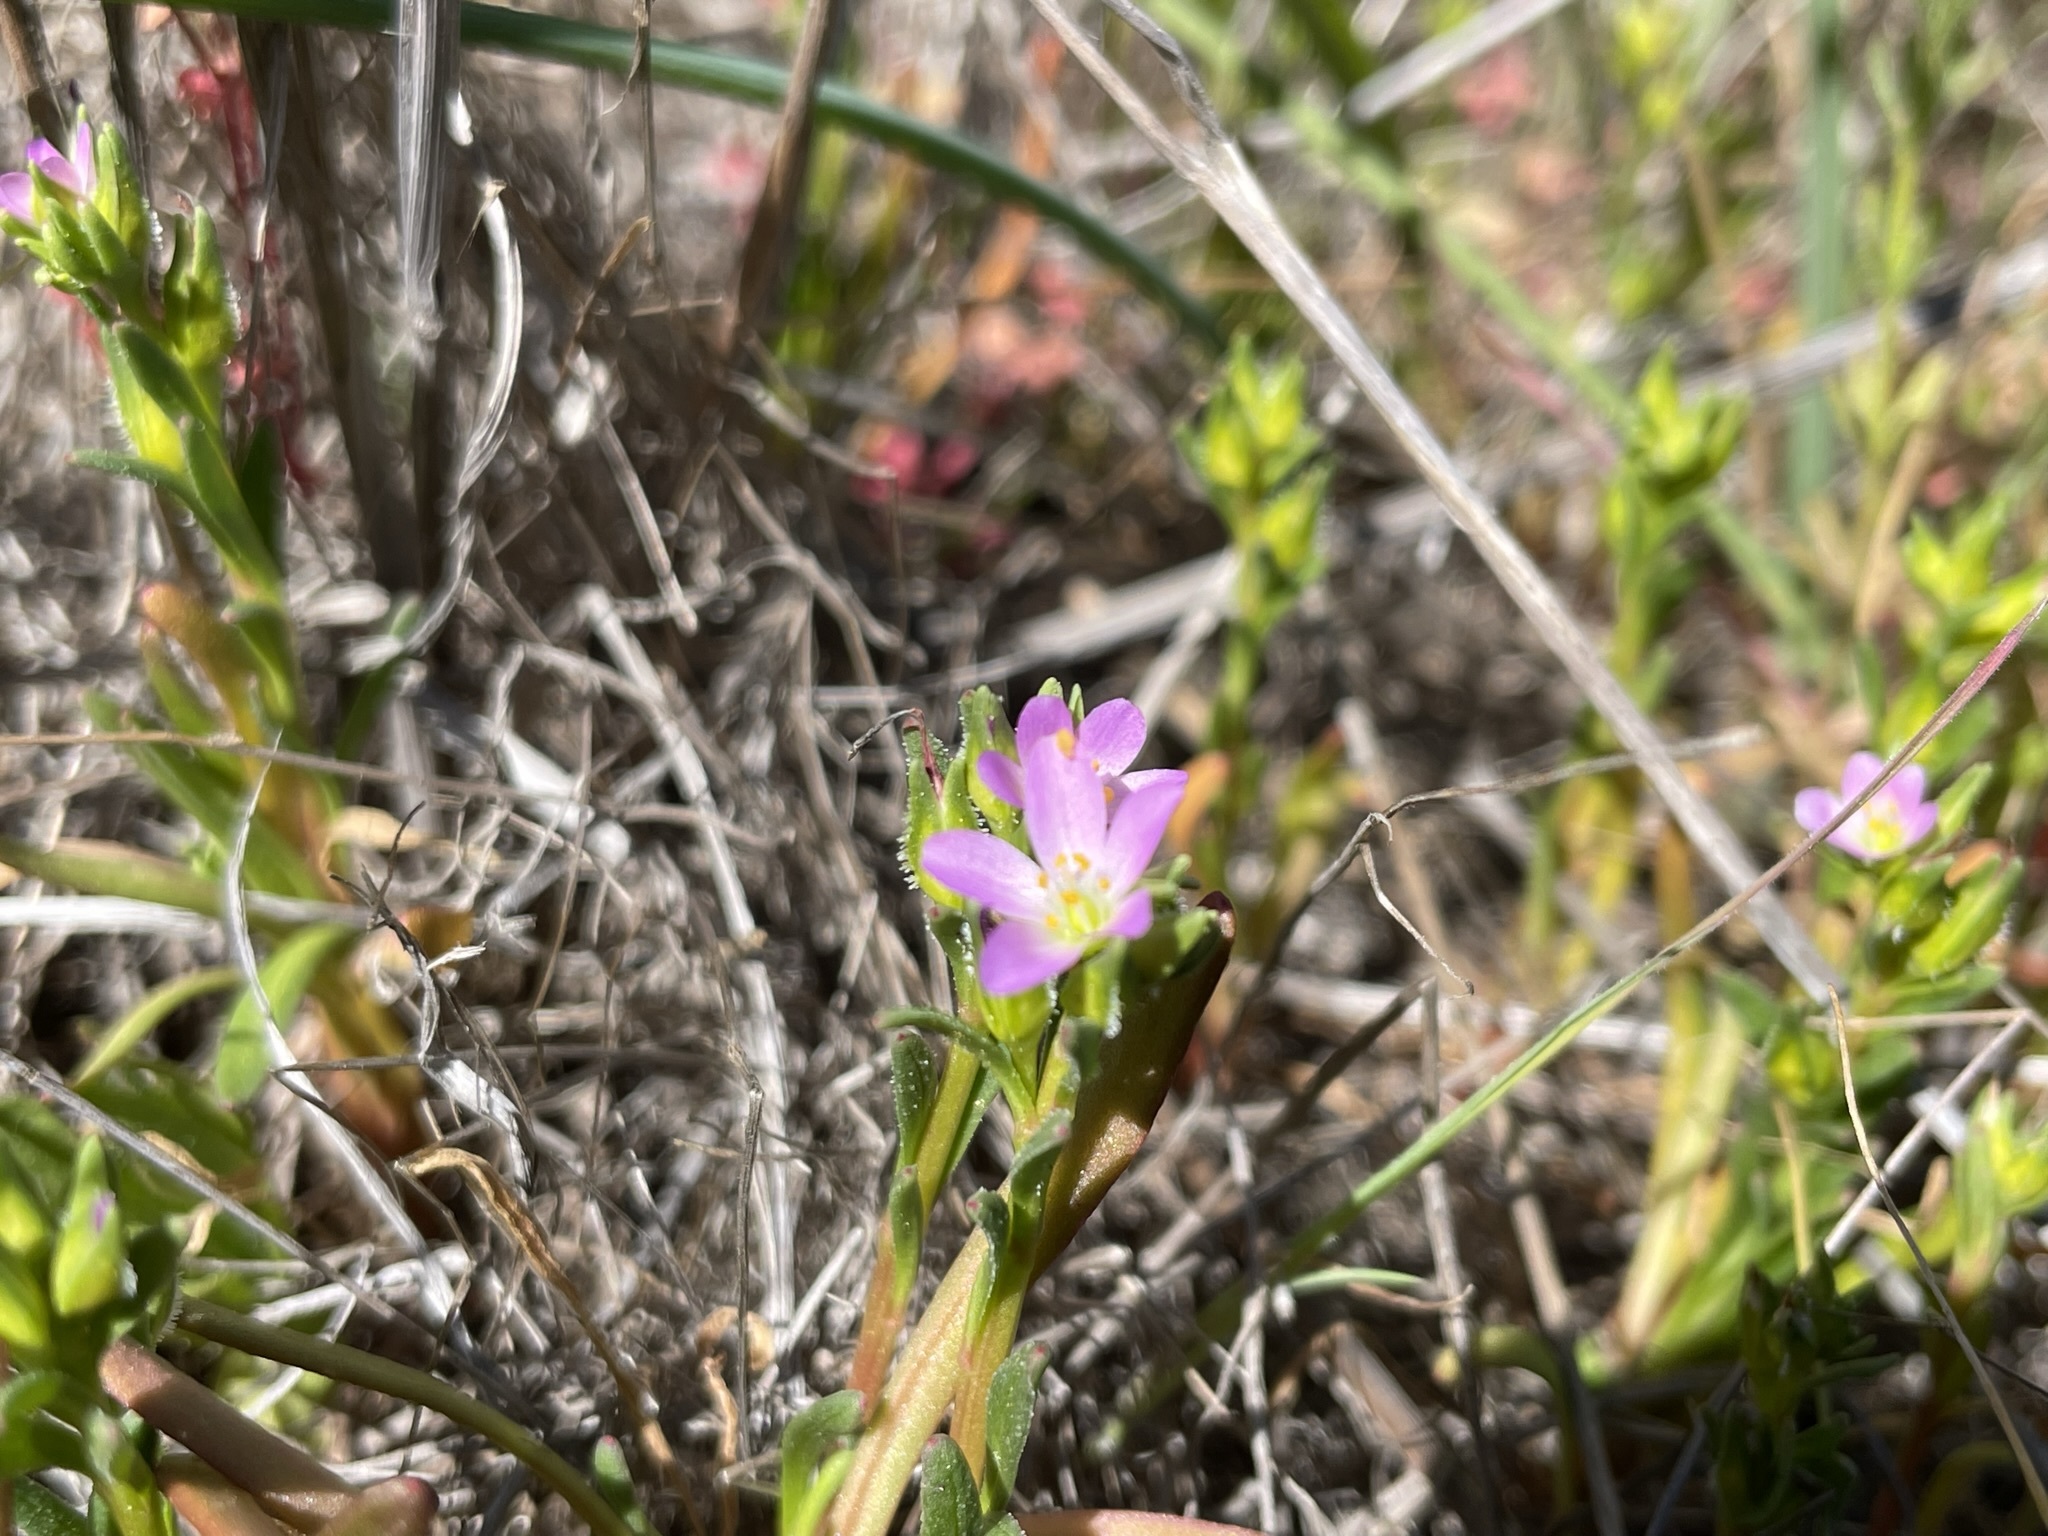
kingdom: Plantae
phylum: Tracheophyta
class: Magnoliopsida
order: Caryophyllales
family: Montiaceae
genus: Calandrinia
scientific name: Calandrinia menziesii
